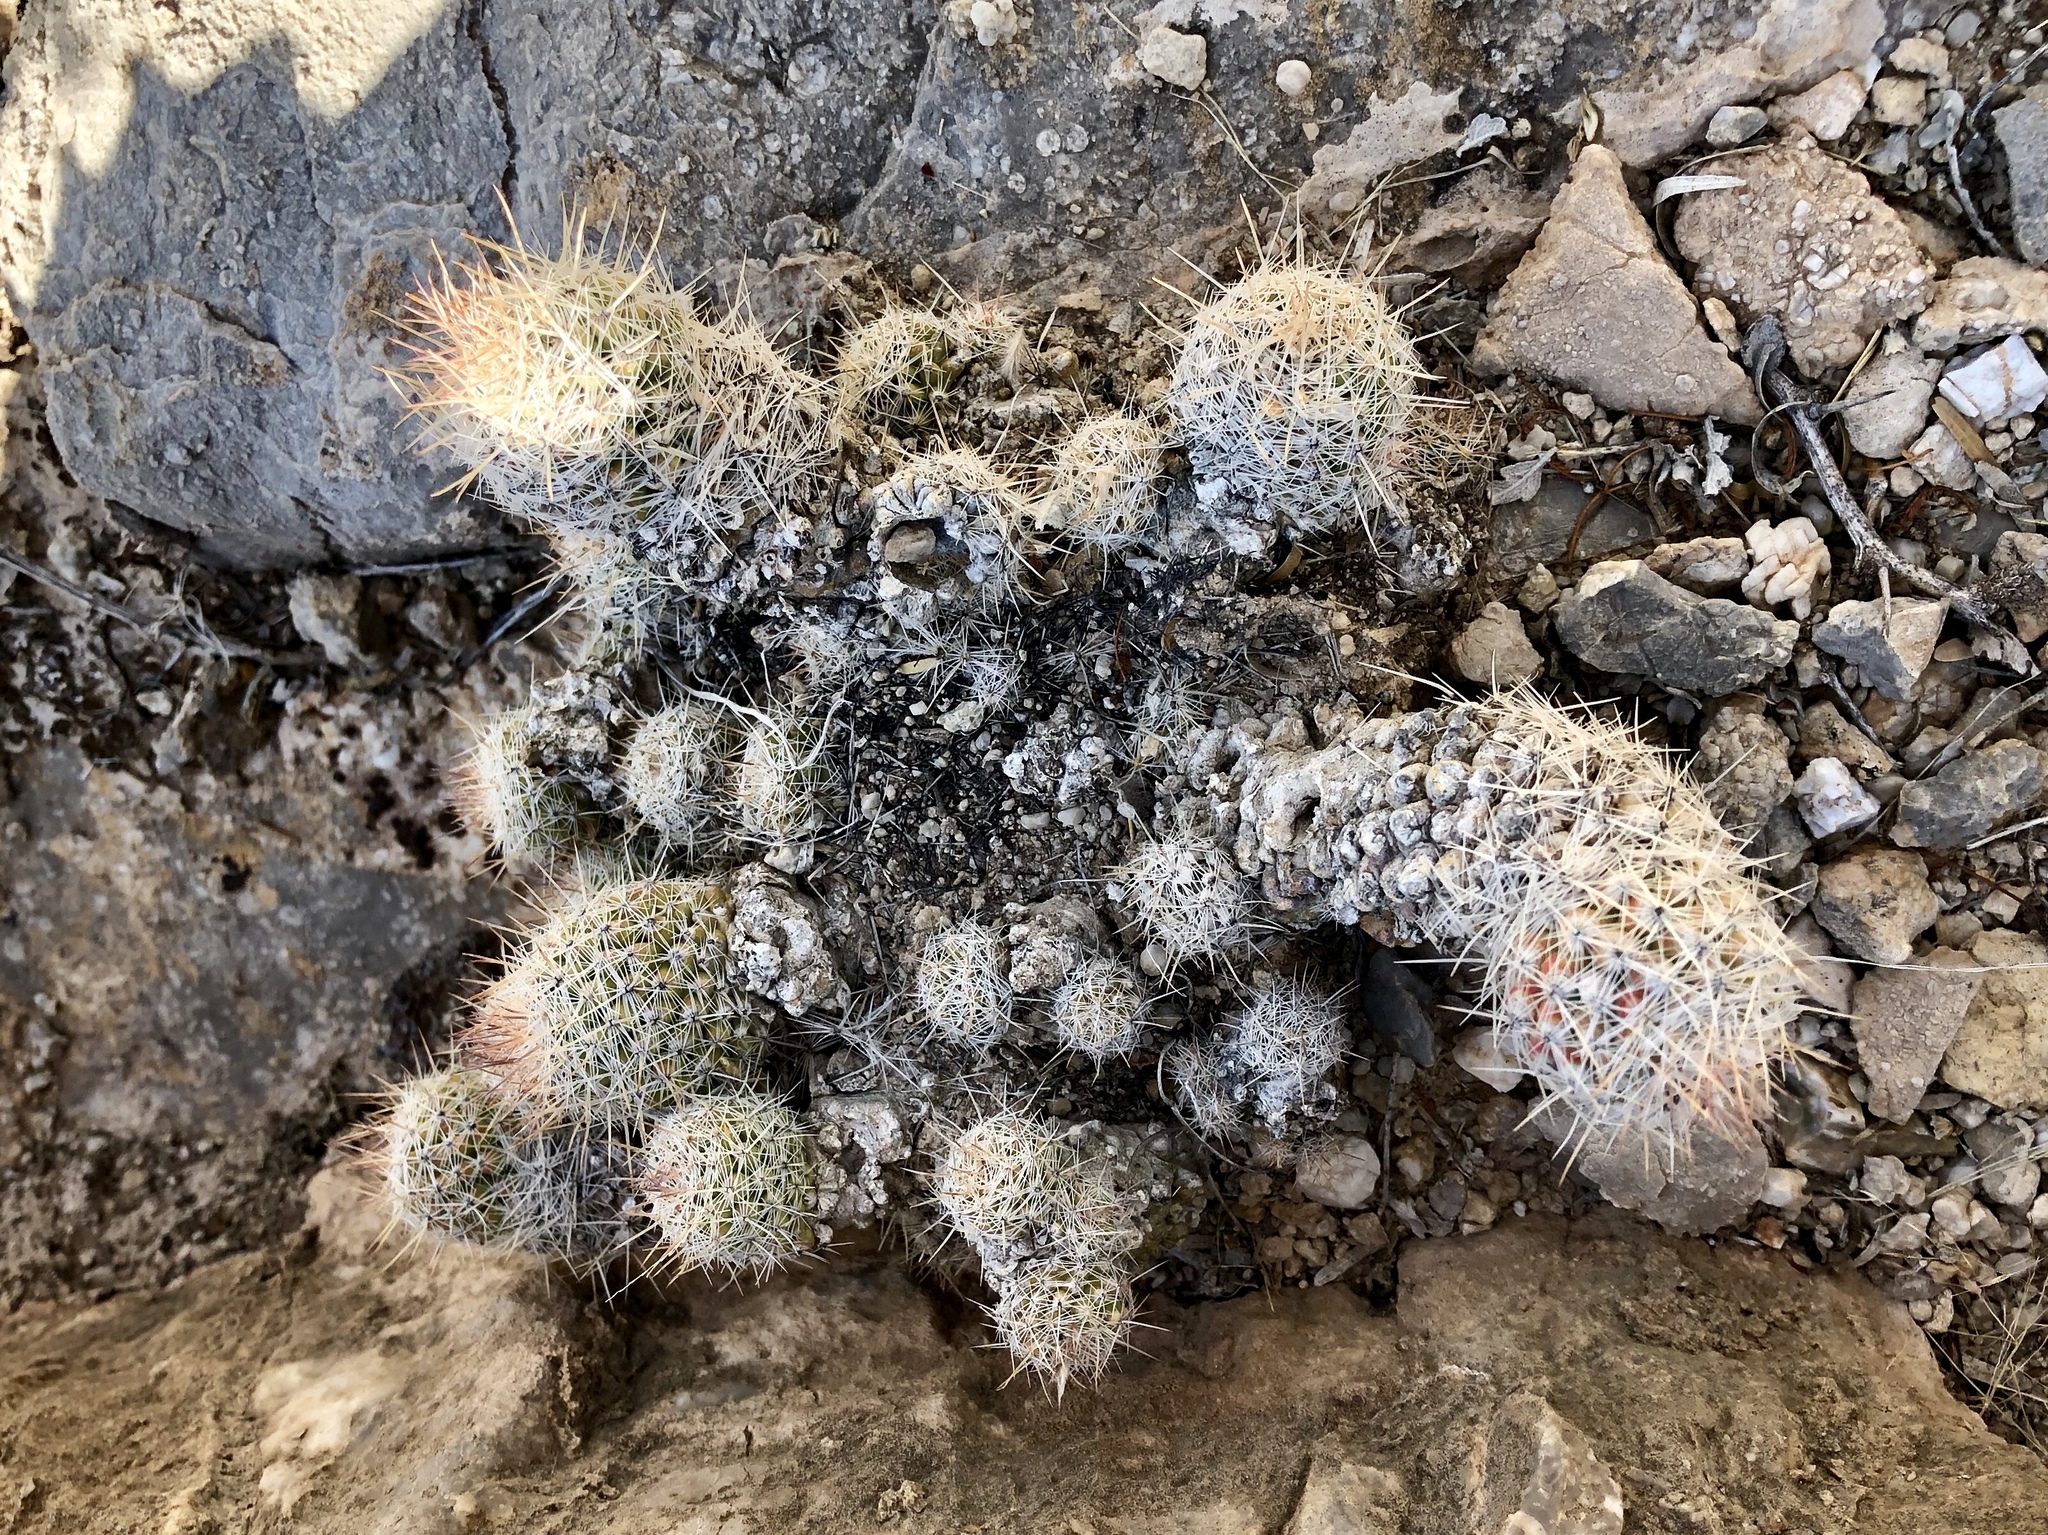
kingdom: Plantae
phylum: Tracheophyta
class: Magnoliopsida
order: Caryophyllales
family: Cactaceae
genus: Pelecyphora
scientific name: Pelecyphora tuberculosa
